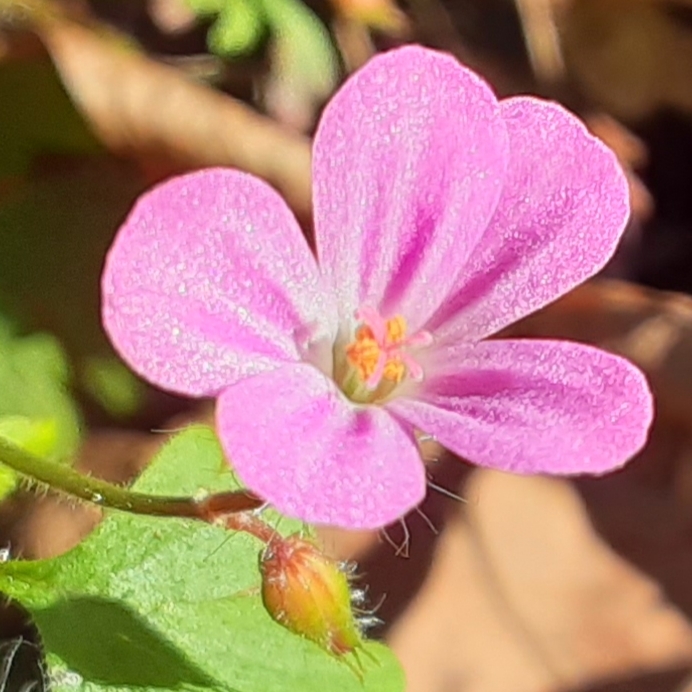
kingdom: Plantae
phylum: Tracheophyta
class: Magnoliopsida
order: Geraniales
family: Geraniaceae
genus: Geranium
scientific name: Geranium robertianum
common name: Herb-robert
